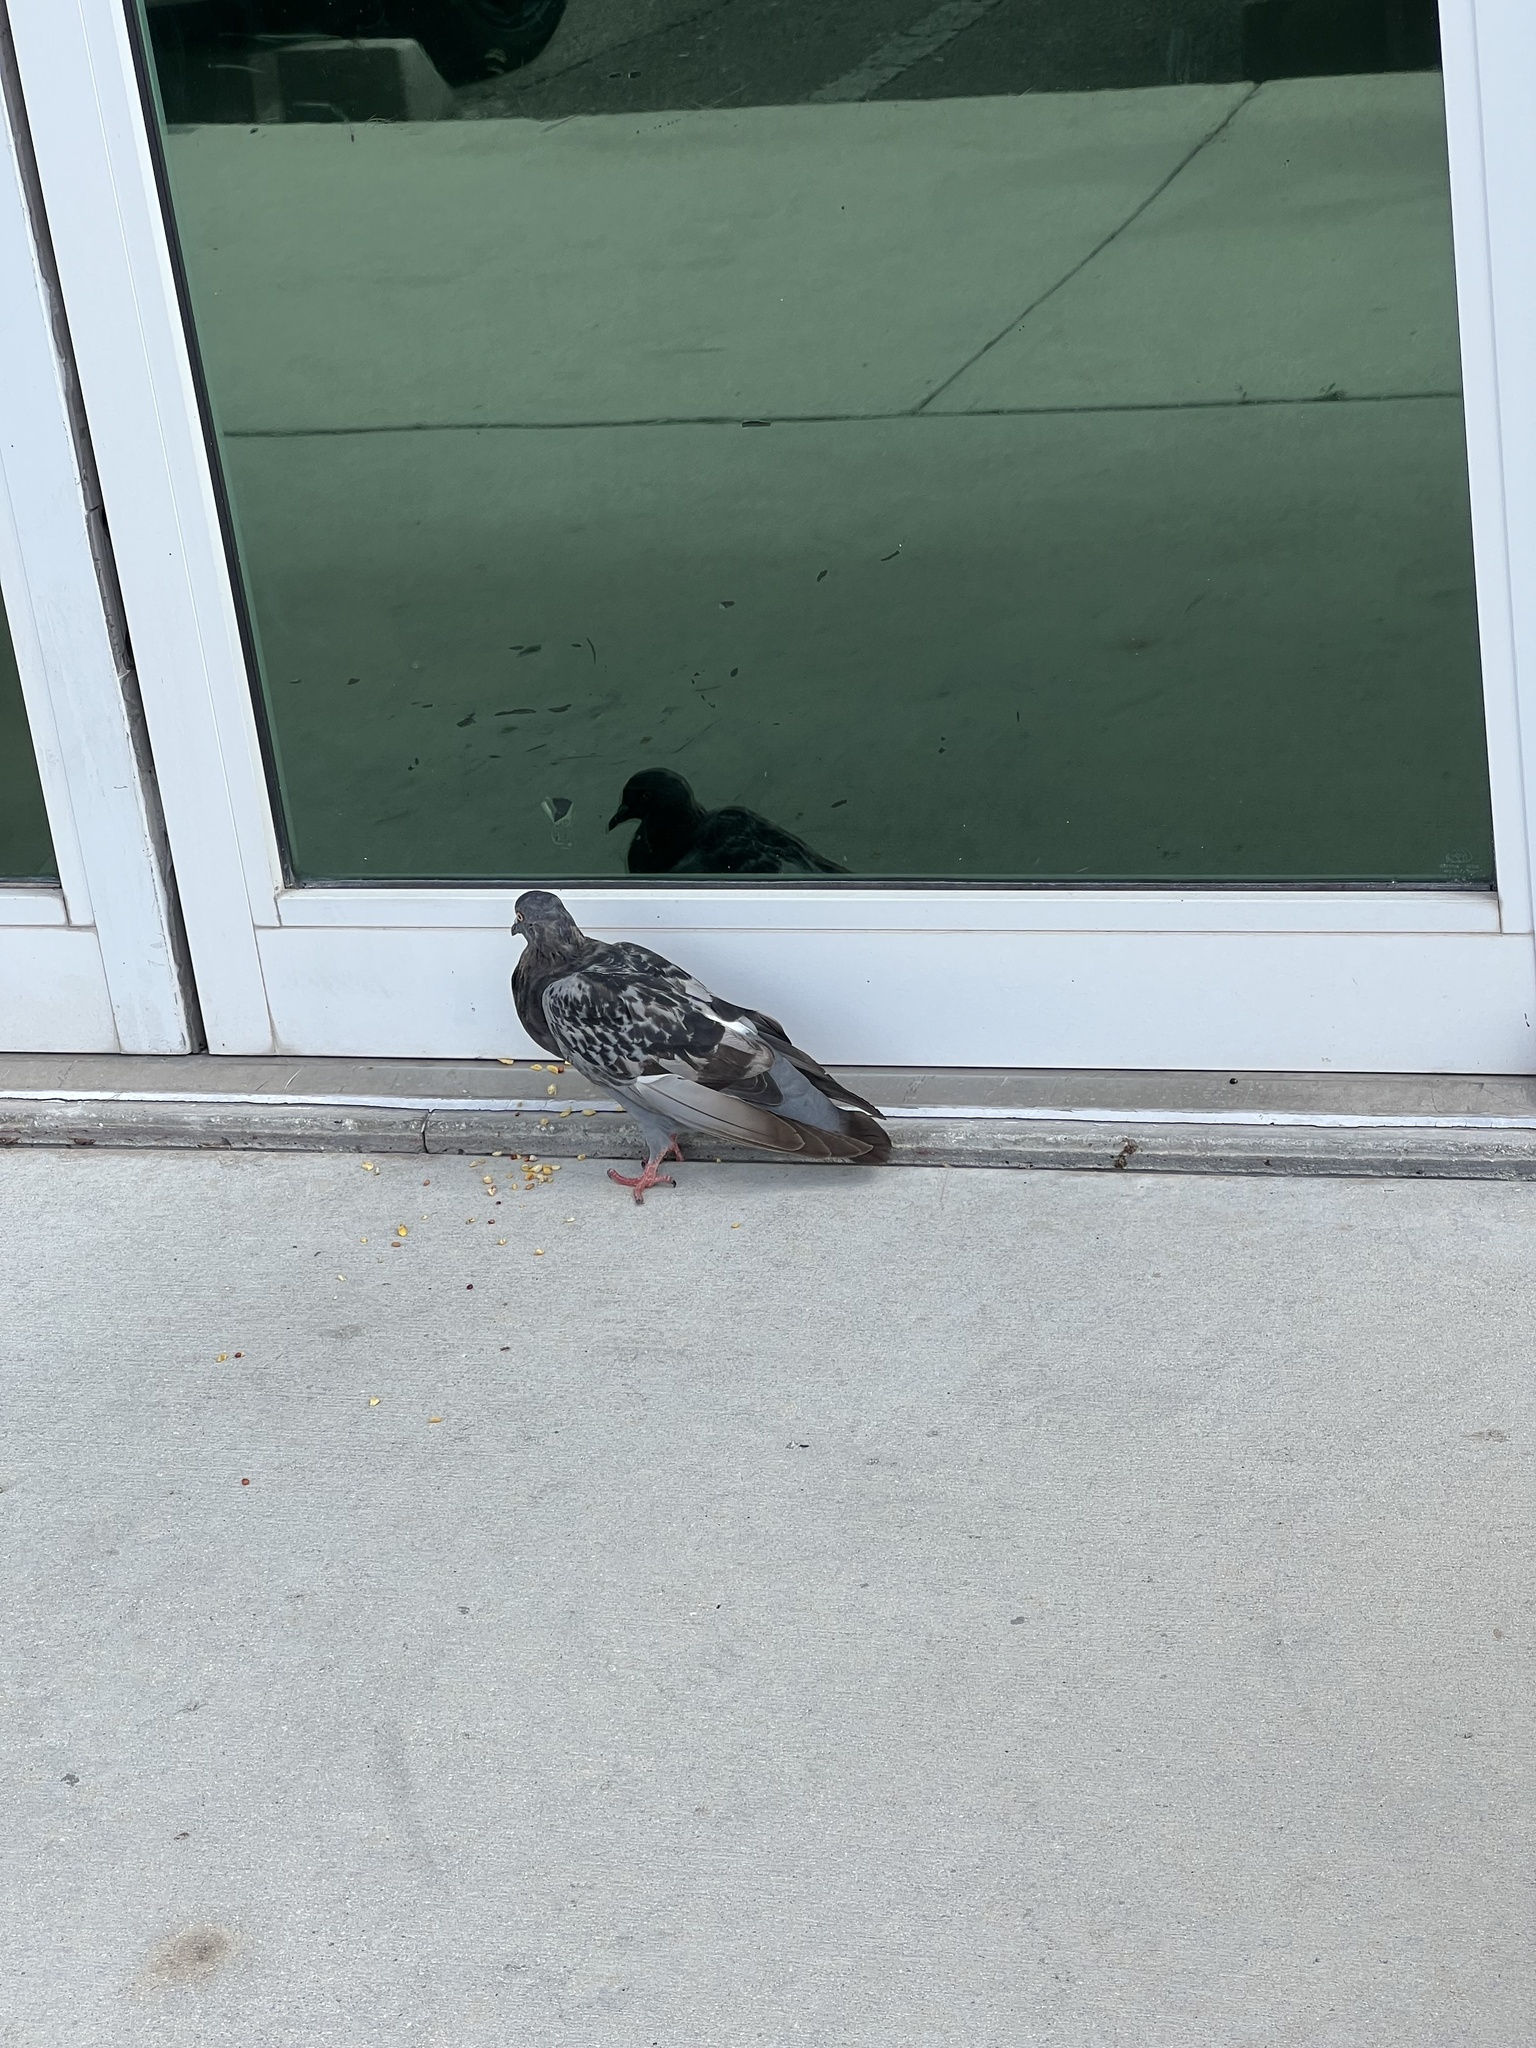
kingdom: Animalia
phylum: Chordata
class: Aves
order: Columbiformes
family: Columbidae
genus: Columba
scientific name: Columba livia
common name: Rock pigeon
